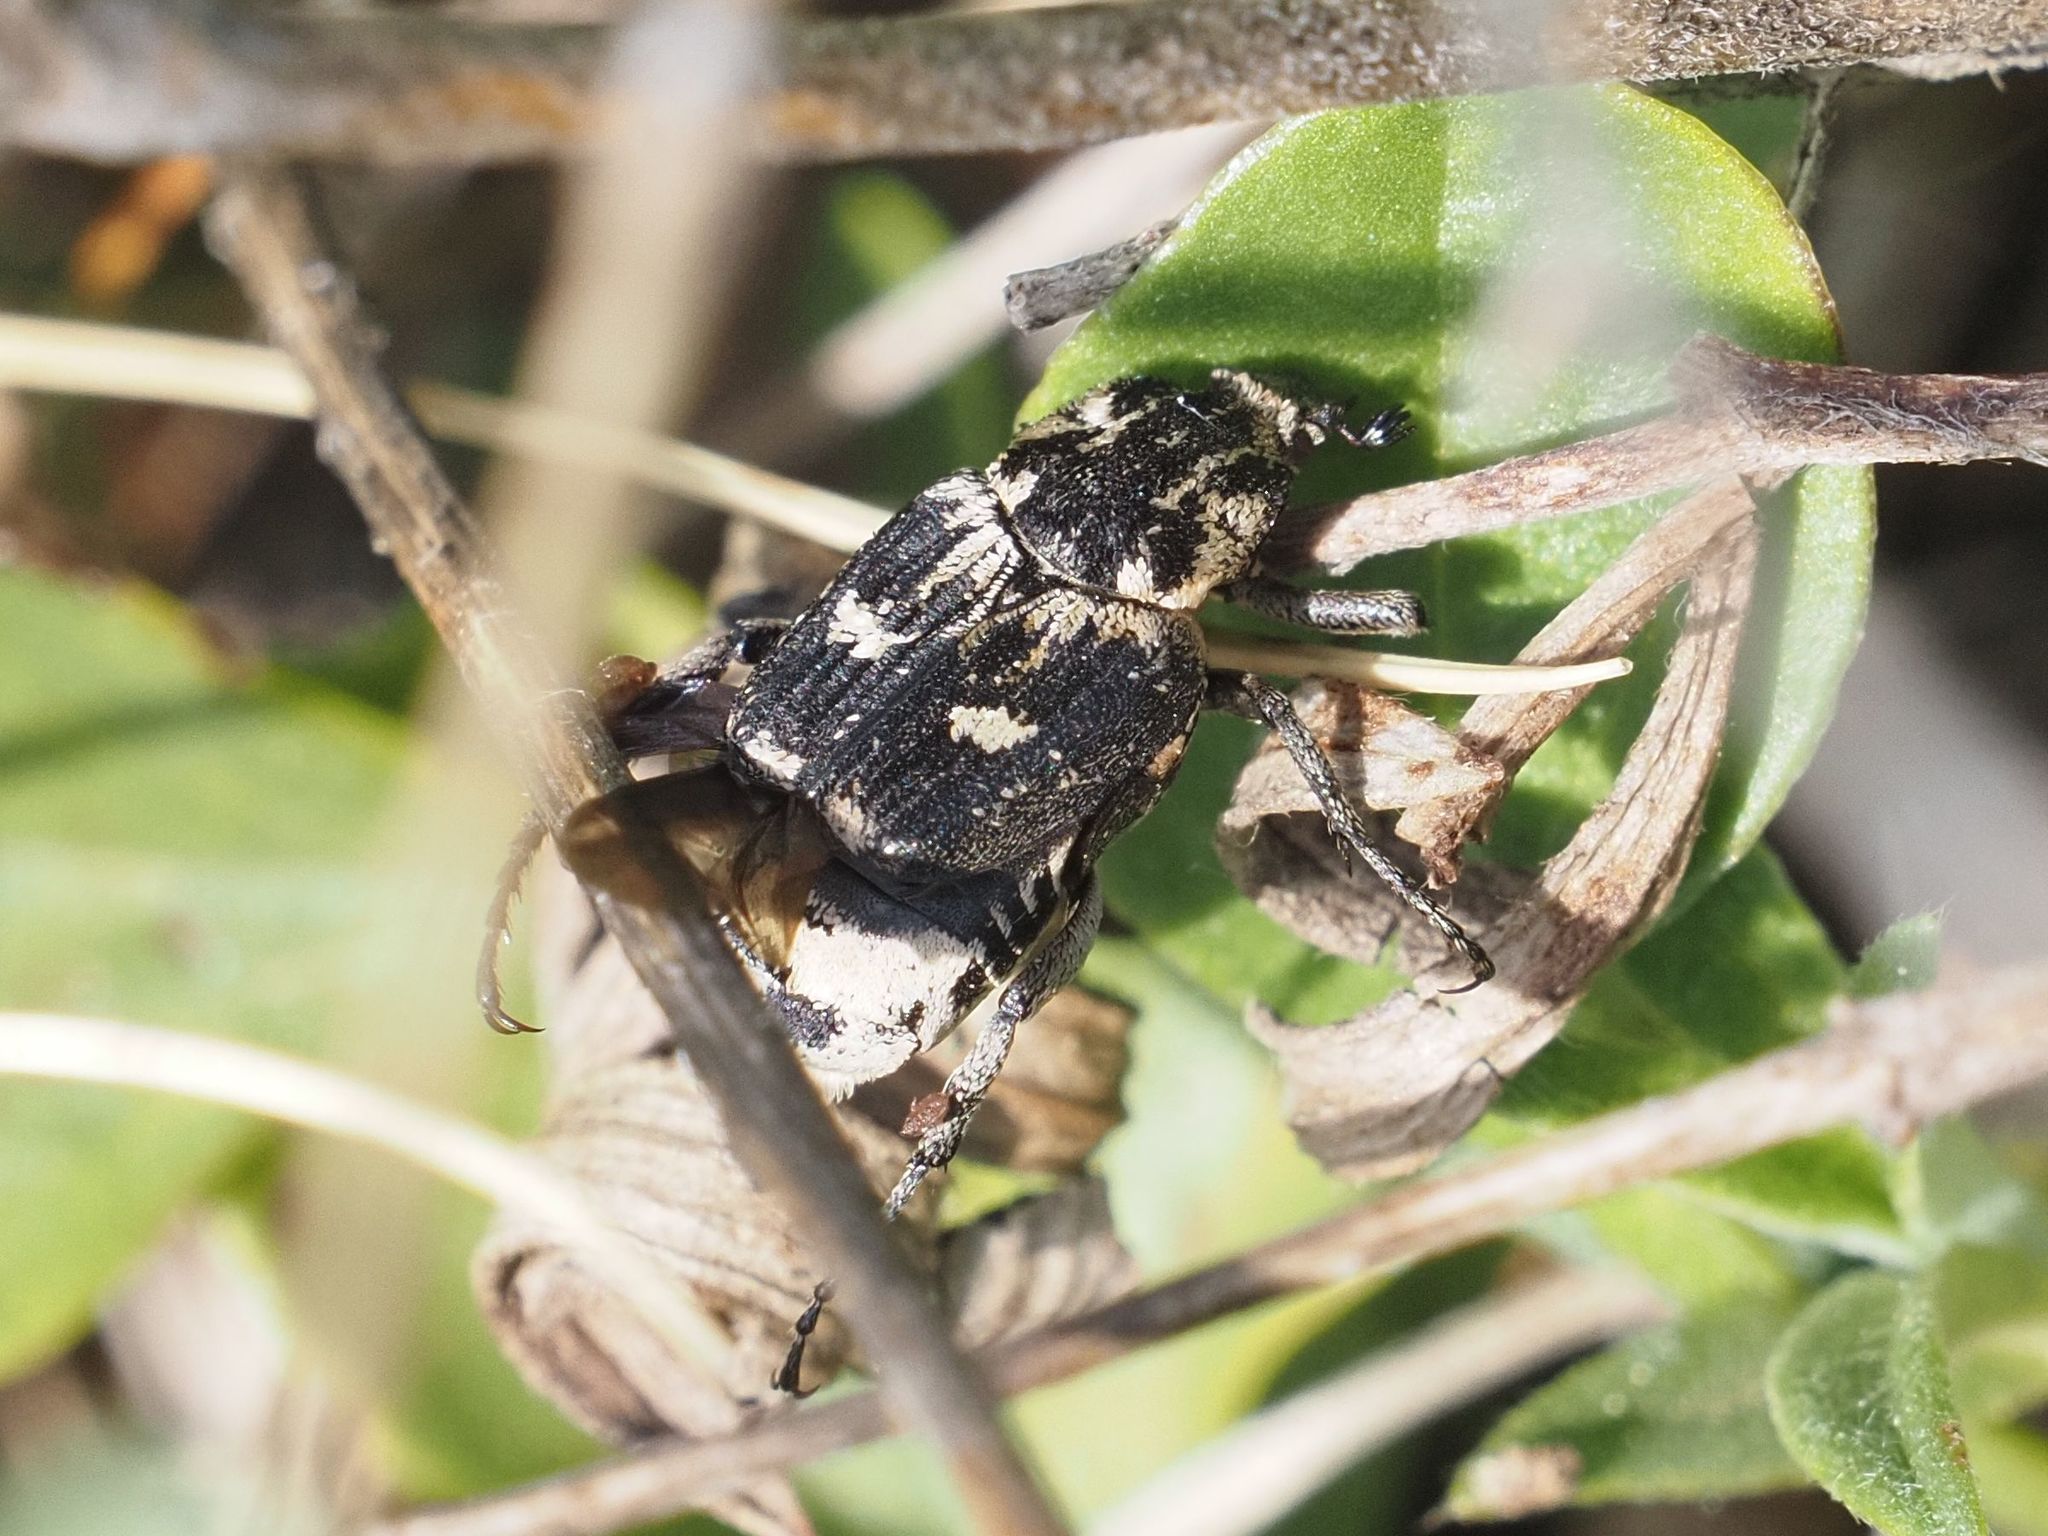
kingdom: Animalia
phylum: Arthropoda
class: Insecta
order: Coleoptera
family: Scarabaeidae
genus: Valgus
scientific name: Valgus hemipterus
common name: Bug flower chafer
